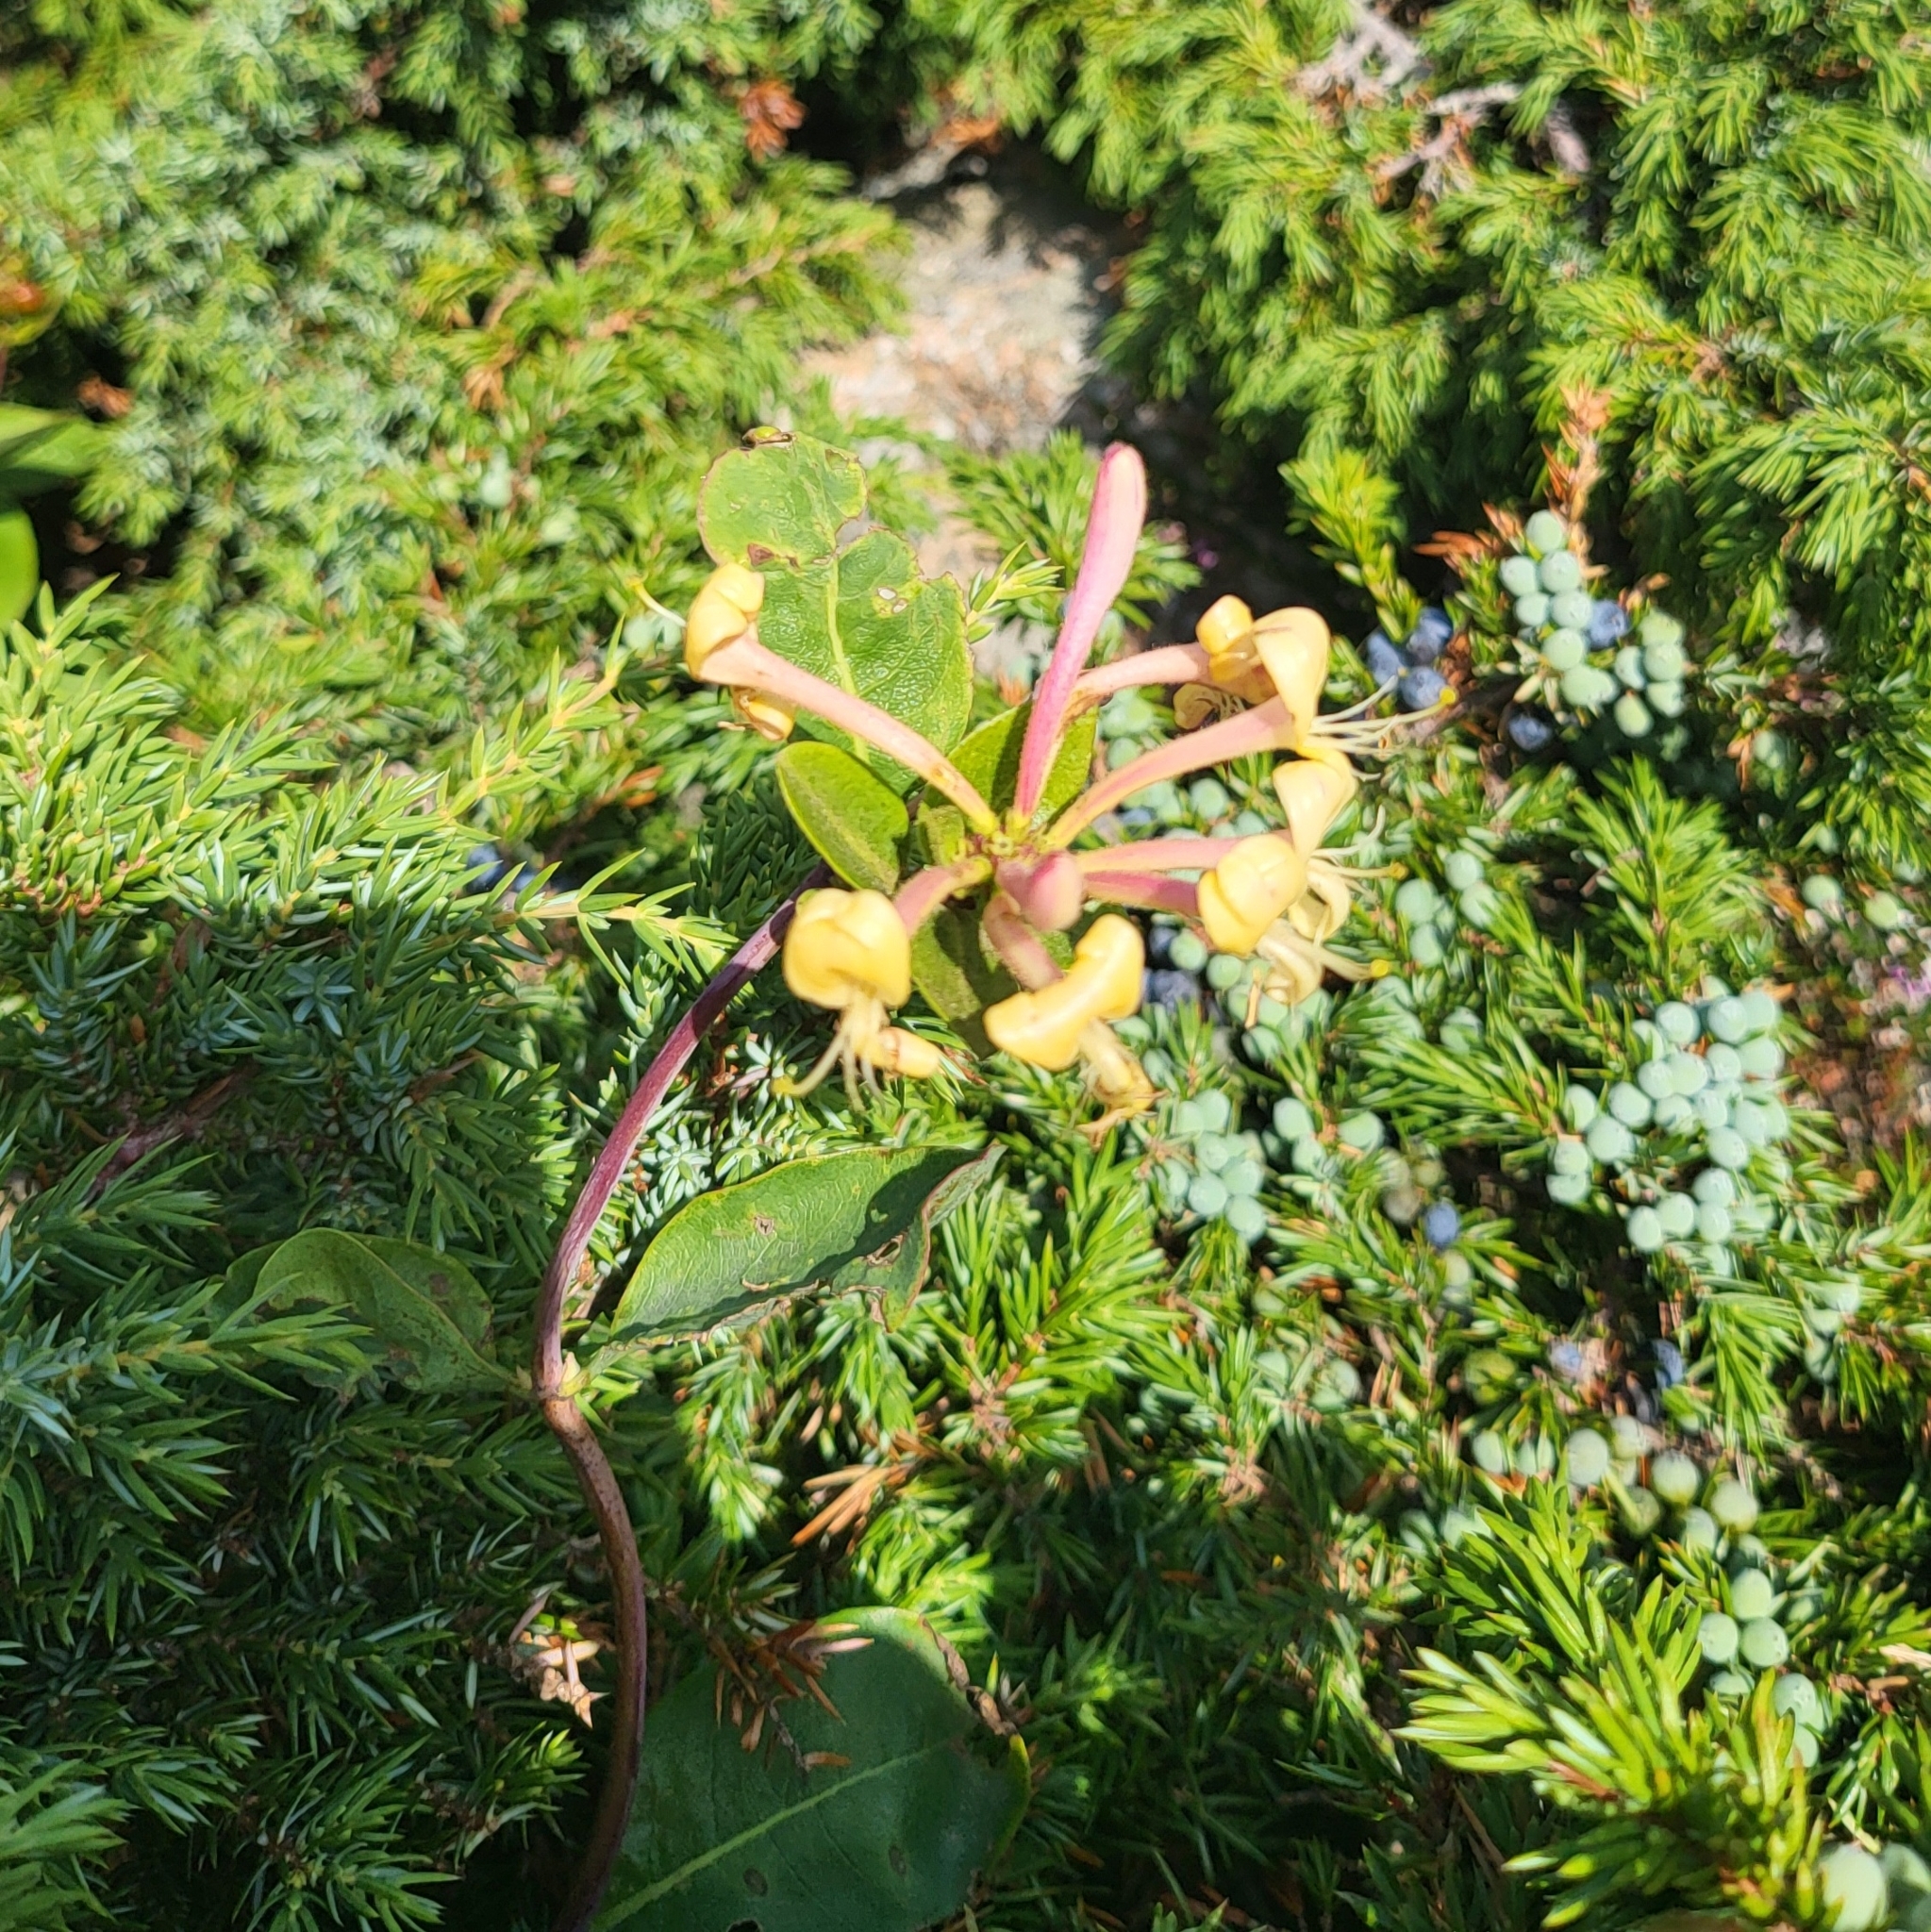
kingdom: Plantae
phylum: Tracheophyta
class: Magnoliopsida
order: Dipsacales
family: Caprifoliaceae
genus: Lonicera
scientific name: Lonicera periclymenum
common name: European honeysuckle
